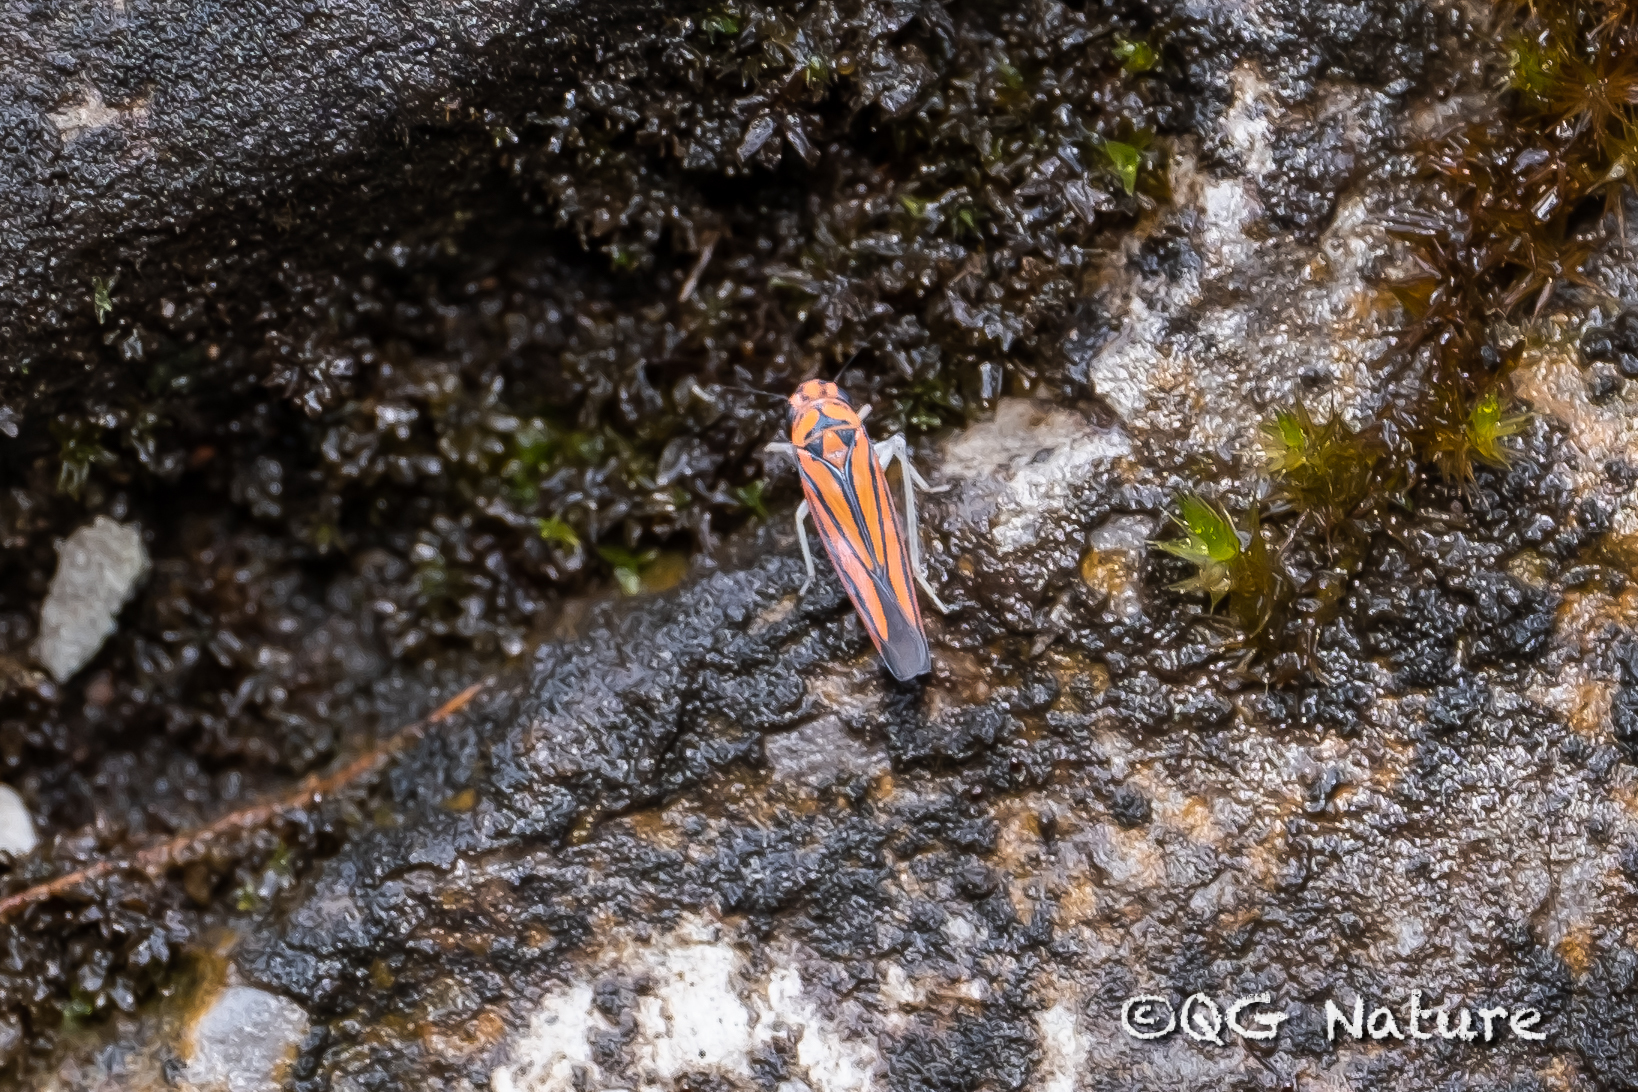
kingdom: Animalia
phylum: Arthropoda
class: Insecta
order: Hemiptera
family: Cicadellidae
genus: Atkinsoniella
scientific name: Atkinsoniella heiyuana
